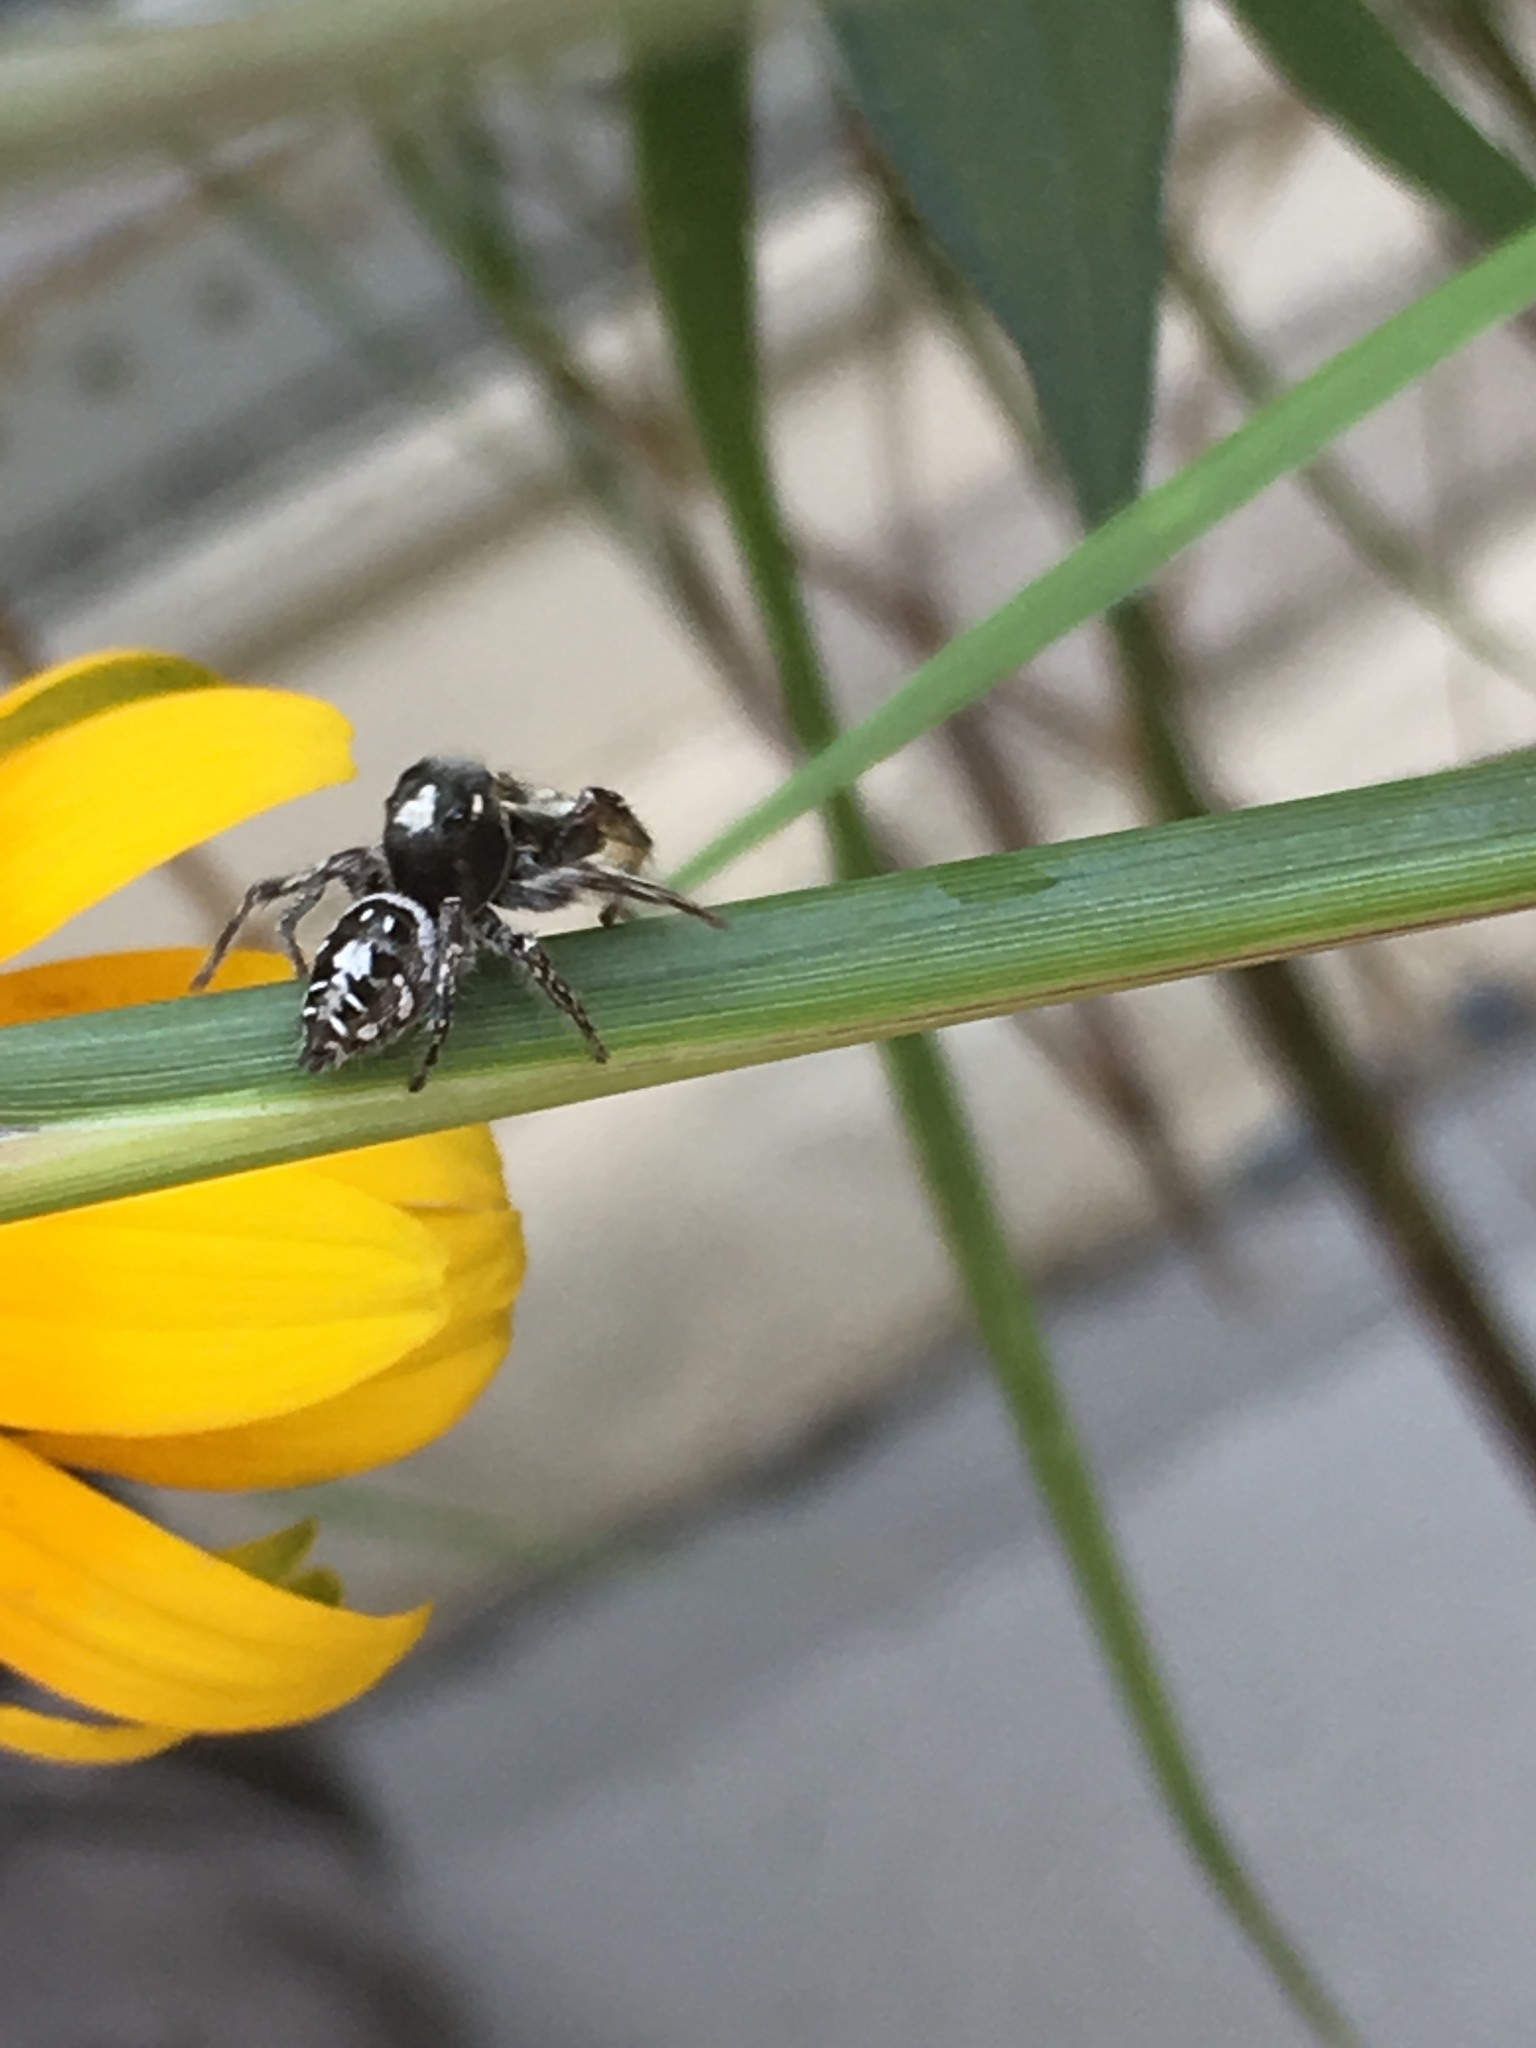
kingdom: Animalia
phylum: Arthropoda
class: Arachnida
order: Araneae
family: Salticidae
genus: Phidippus
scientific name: Phidippus putnami
